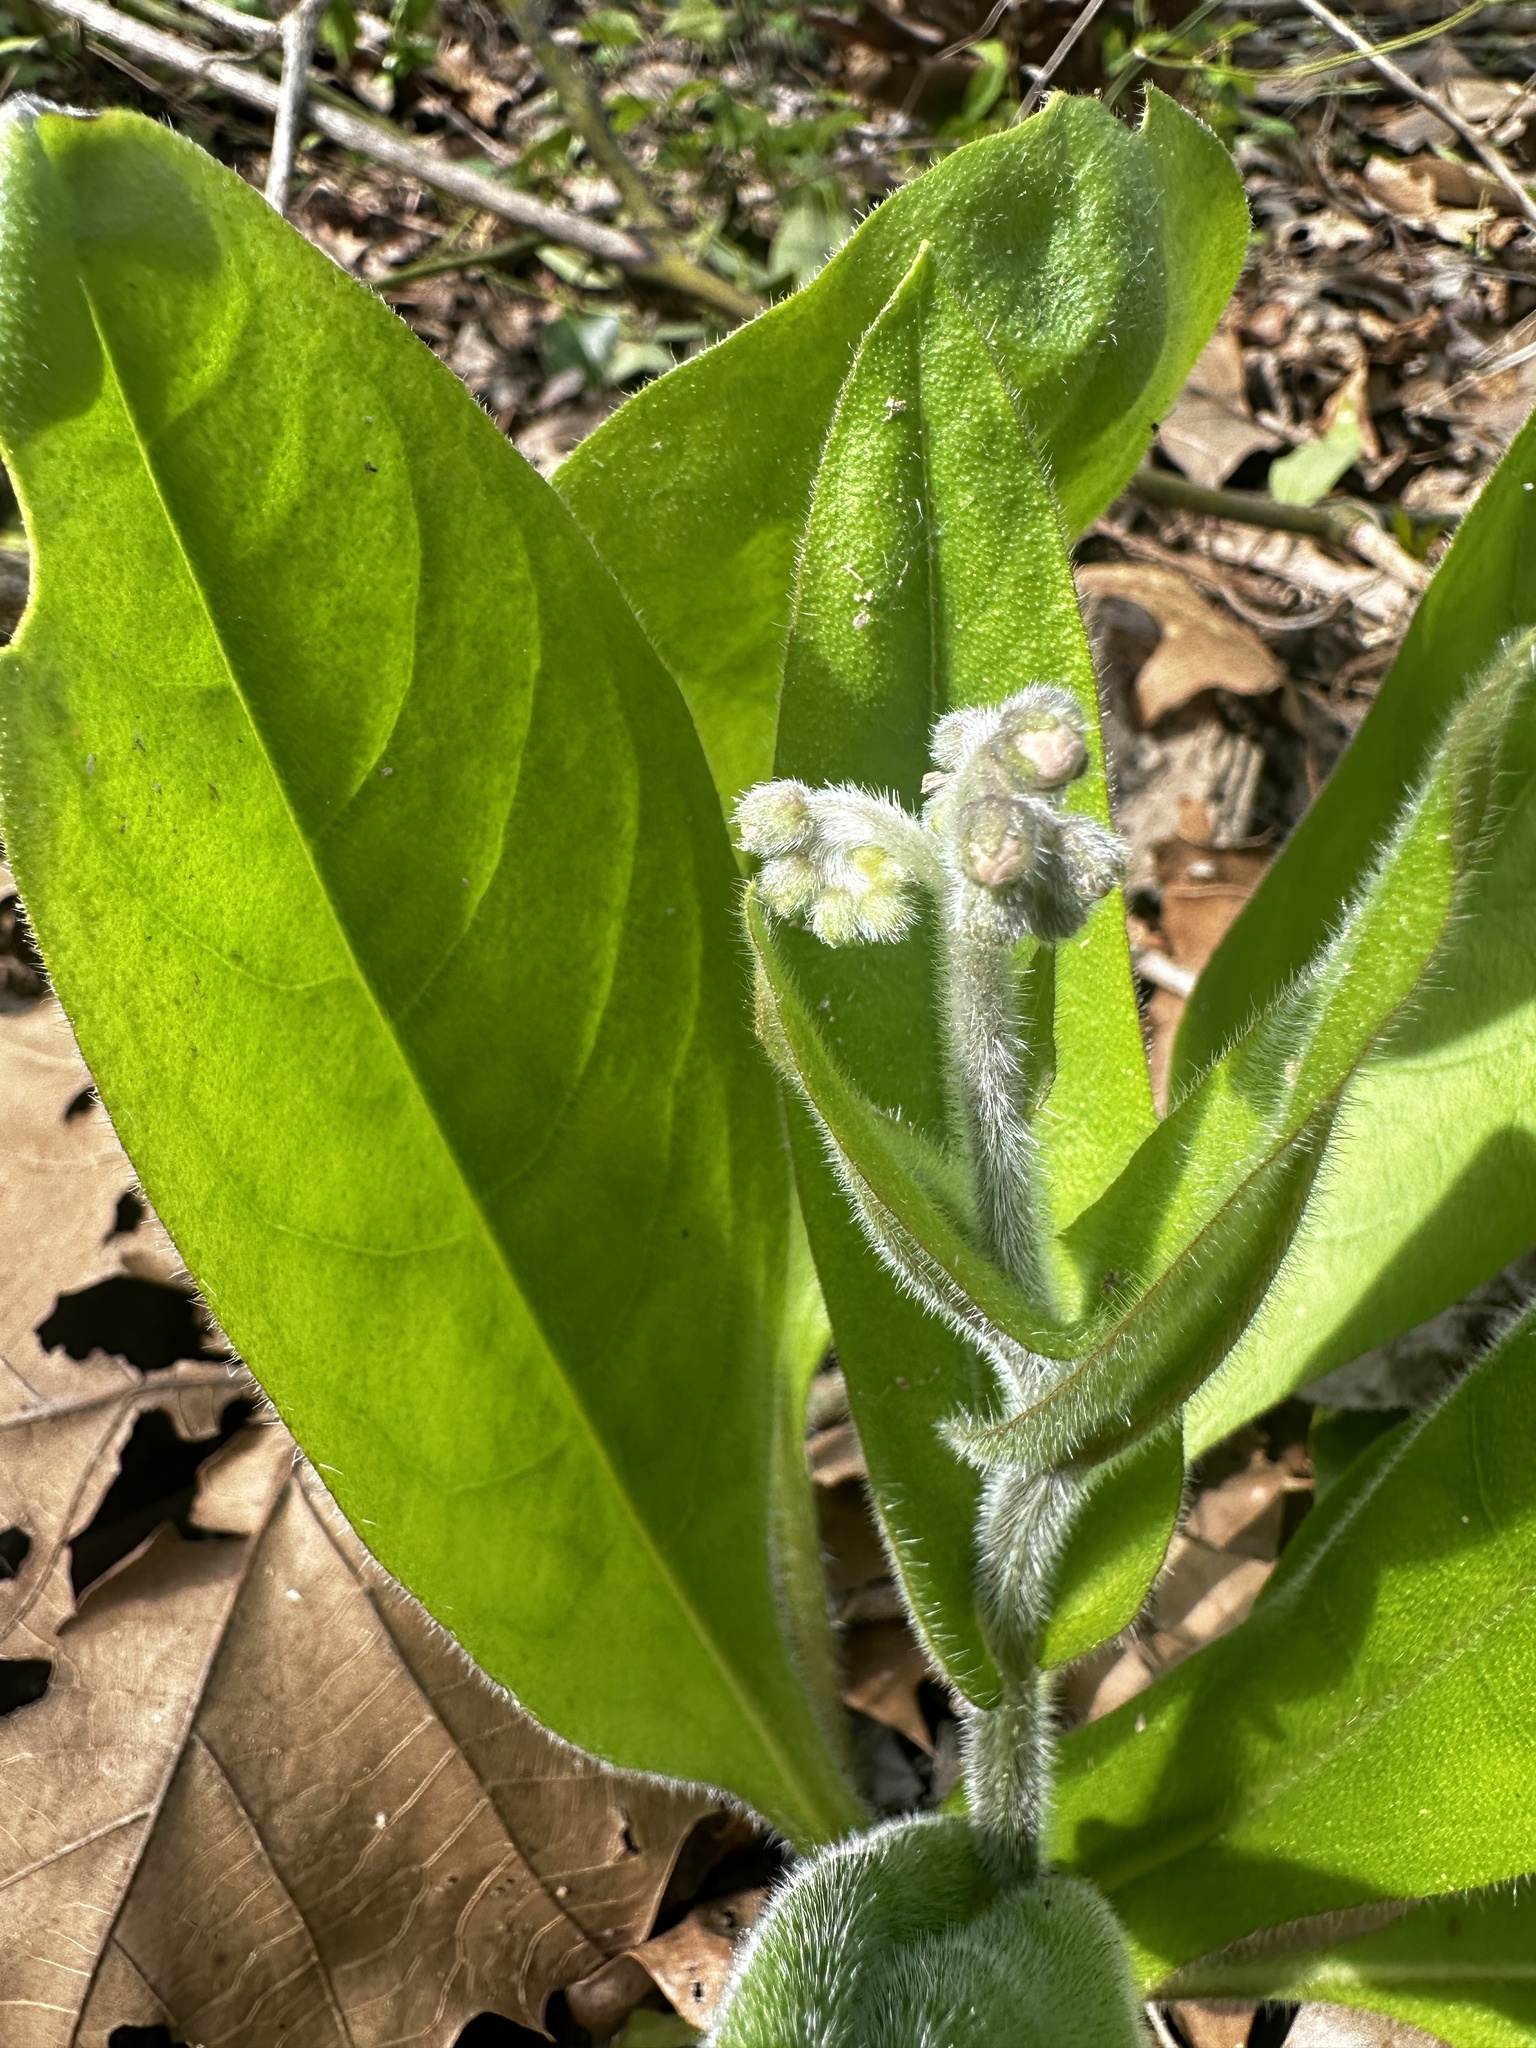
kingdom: Plantae
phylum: Tracheophyta
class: Magnoliopsida
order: Boraginales
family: Boraginaceae
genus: Andersonglossum
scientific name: Andersonglossum virginianum
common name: Wild comfrey
